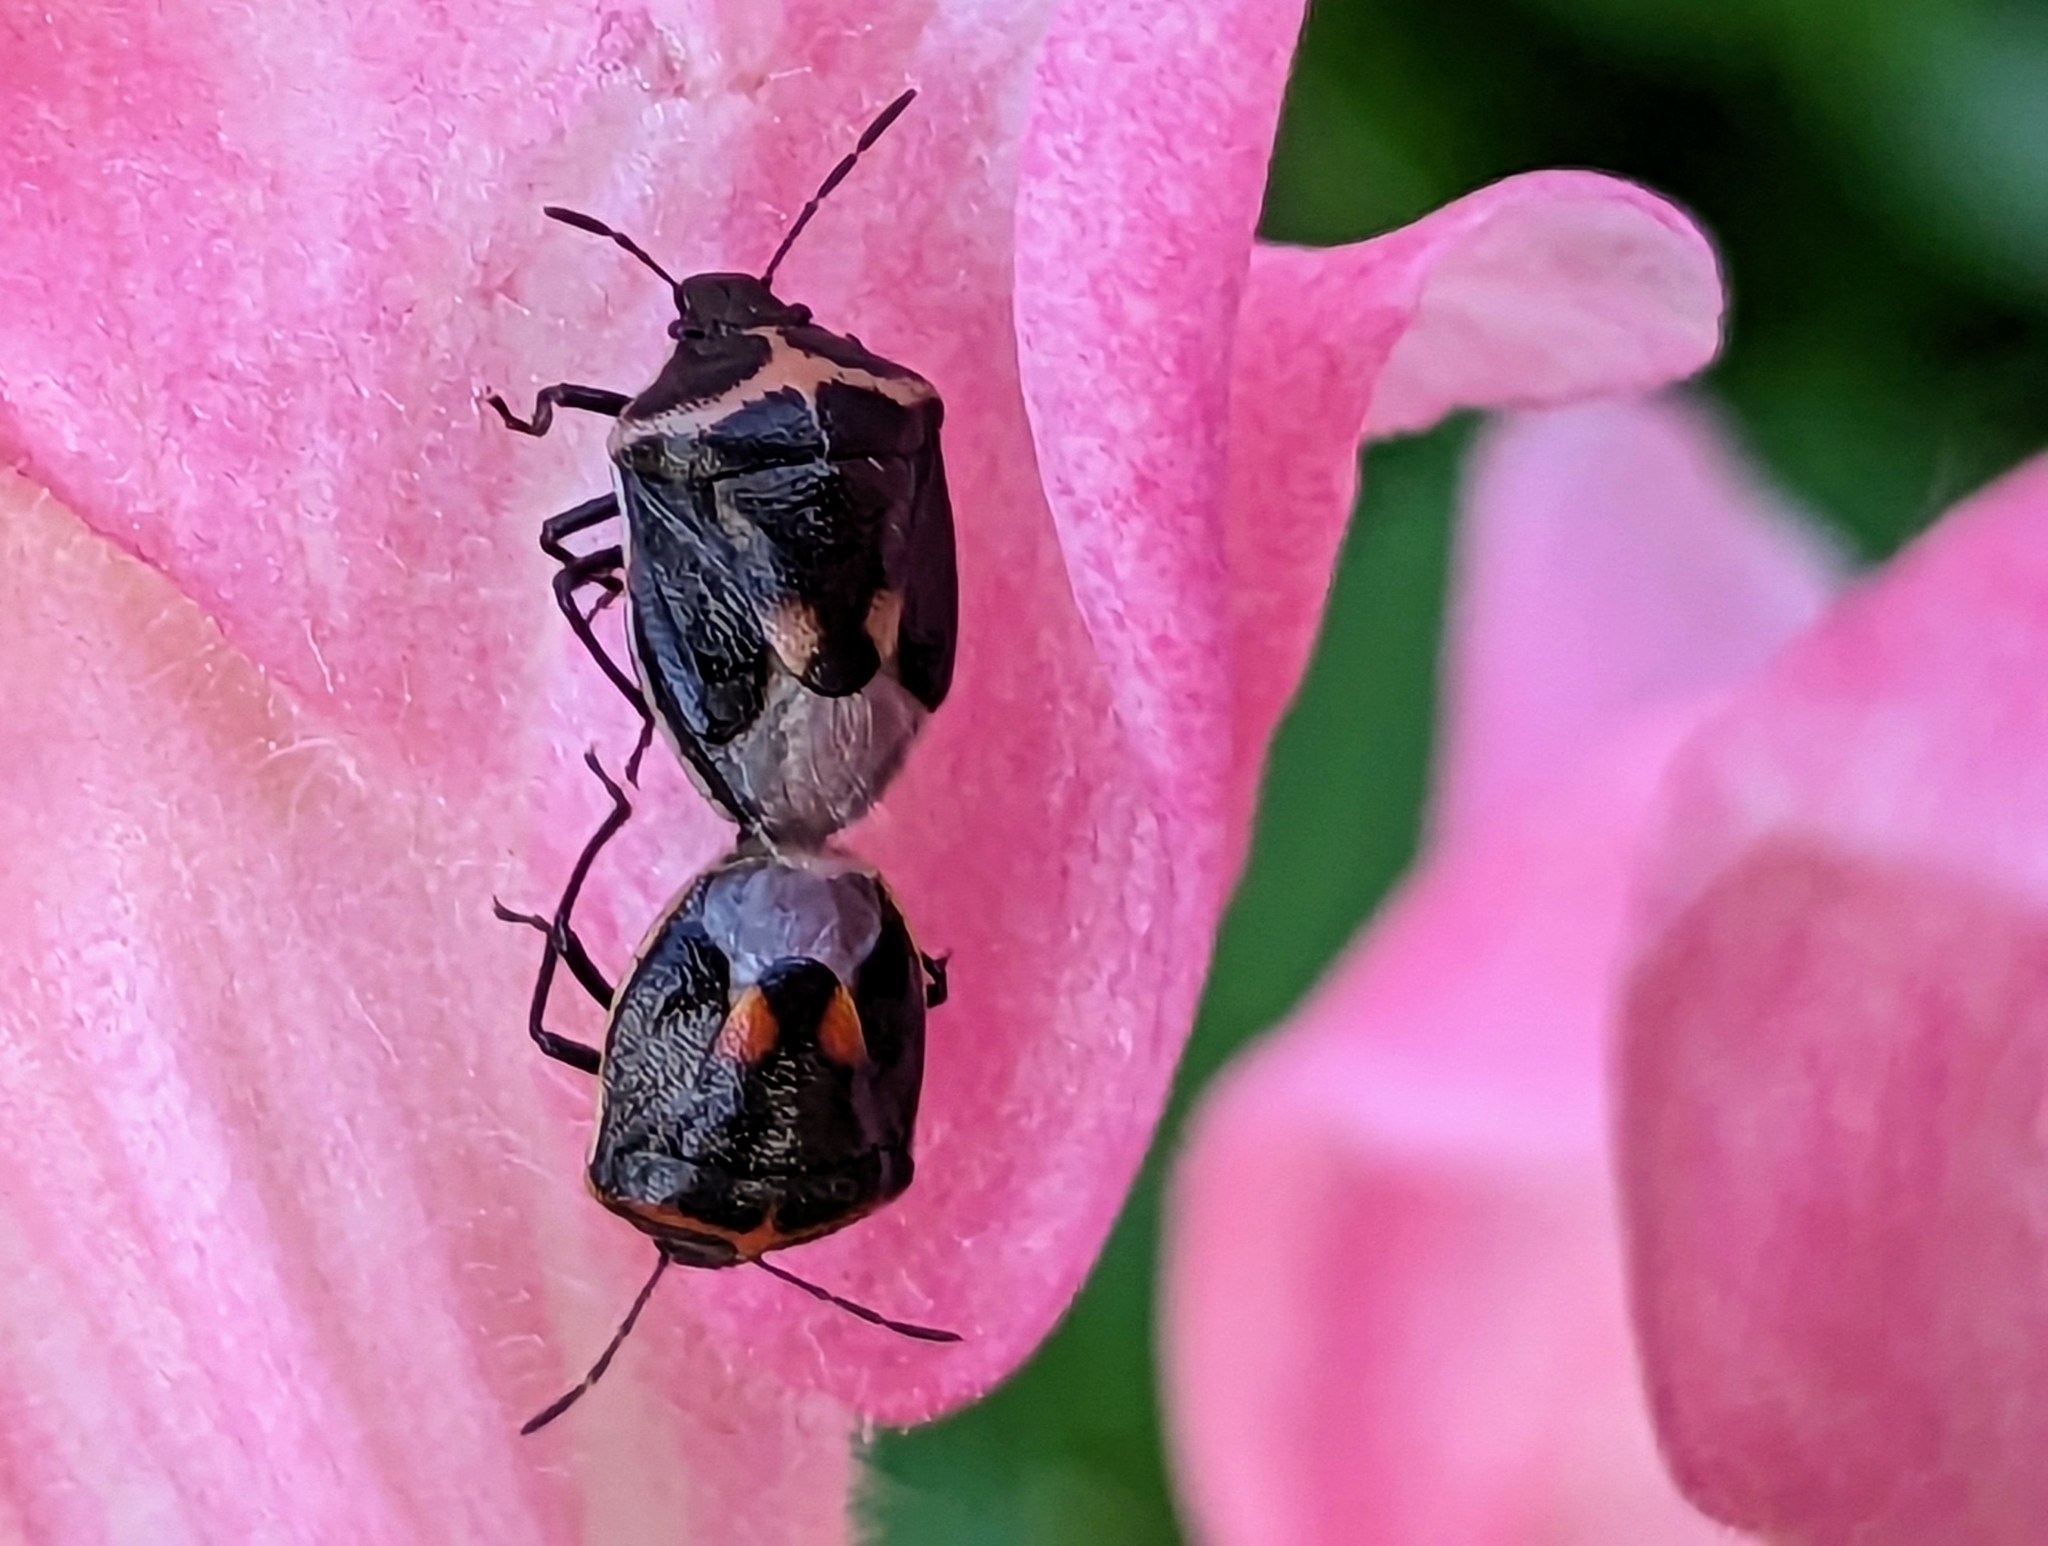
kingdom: Animalia
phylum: Arthropoda
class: Insecta
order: Hemiptera
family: Pentatomidae
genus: Cosmopepla
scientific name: Cosmopepla lintneriana
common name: Twice-stabbed stink bug
